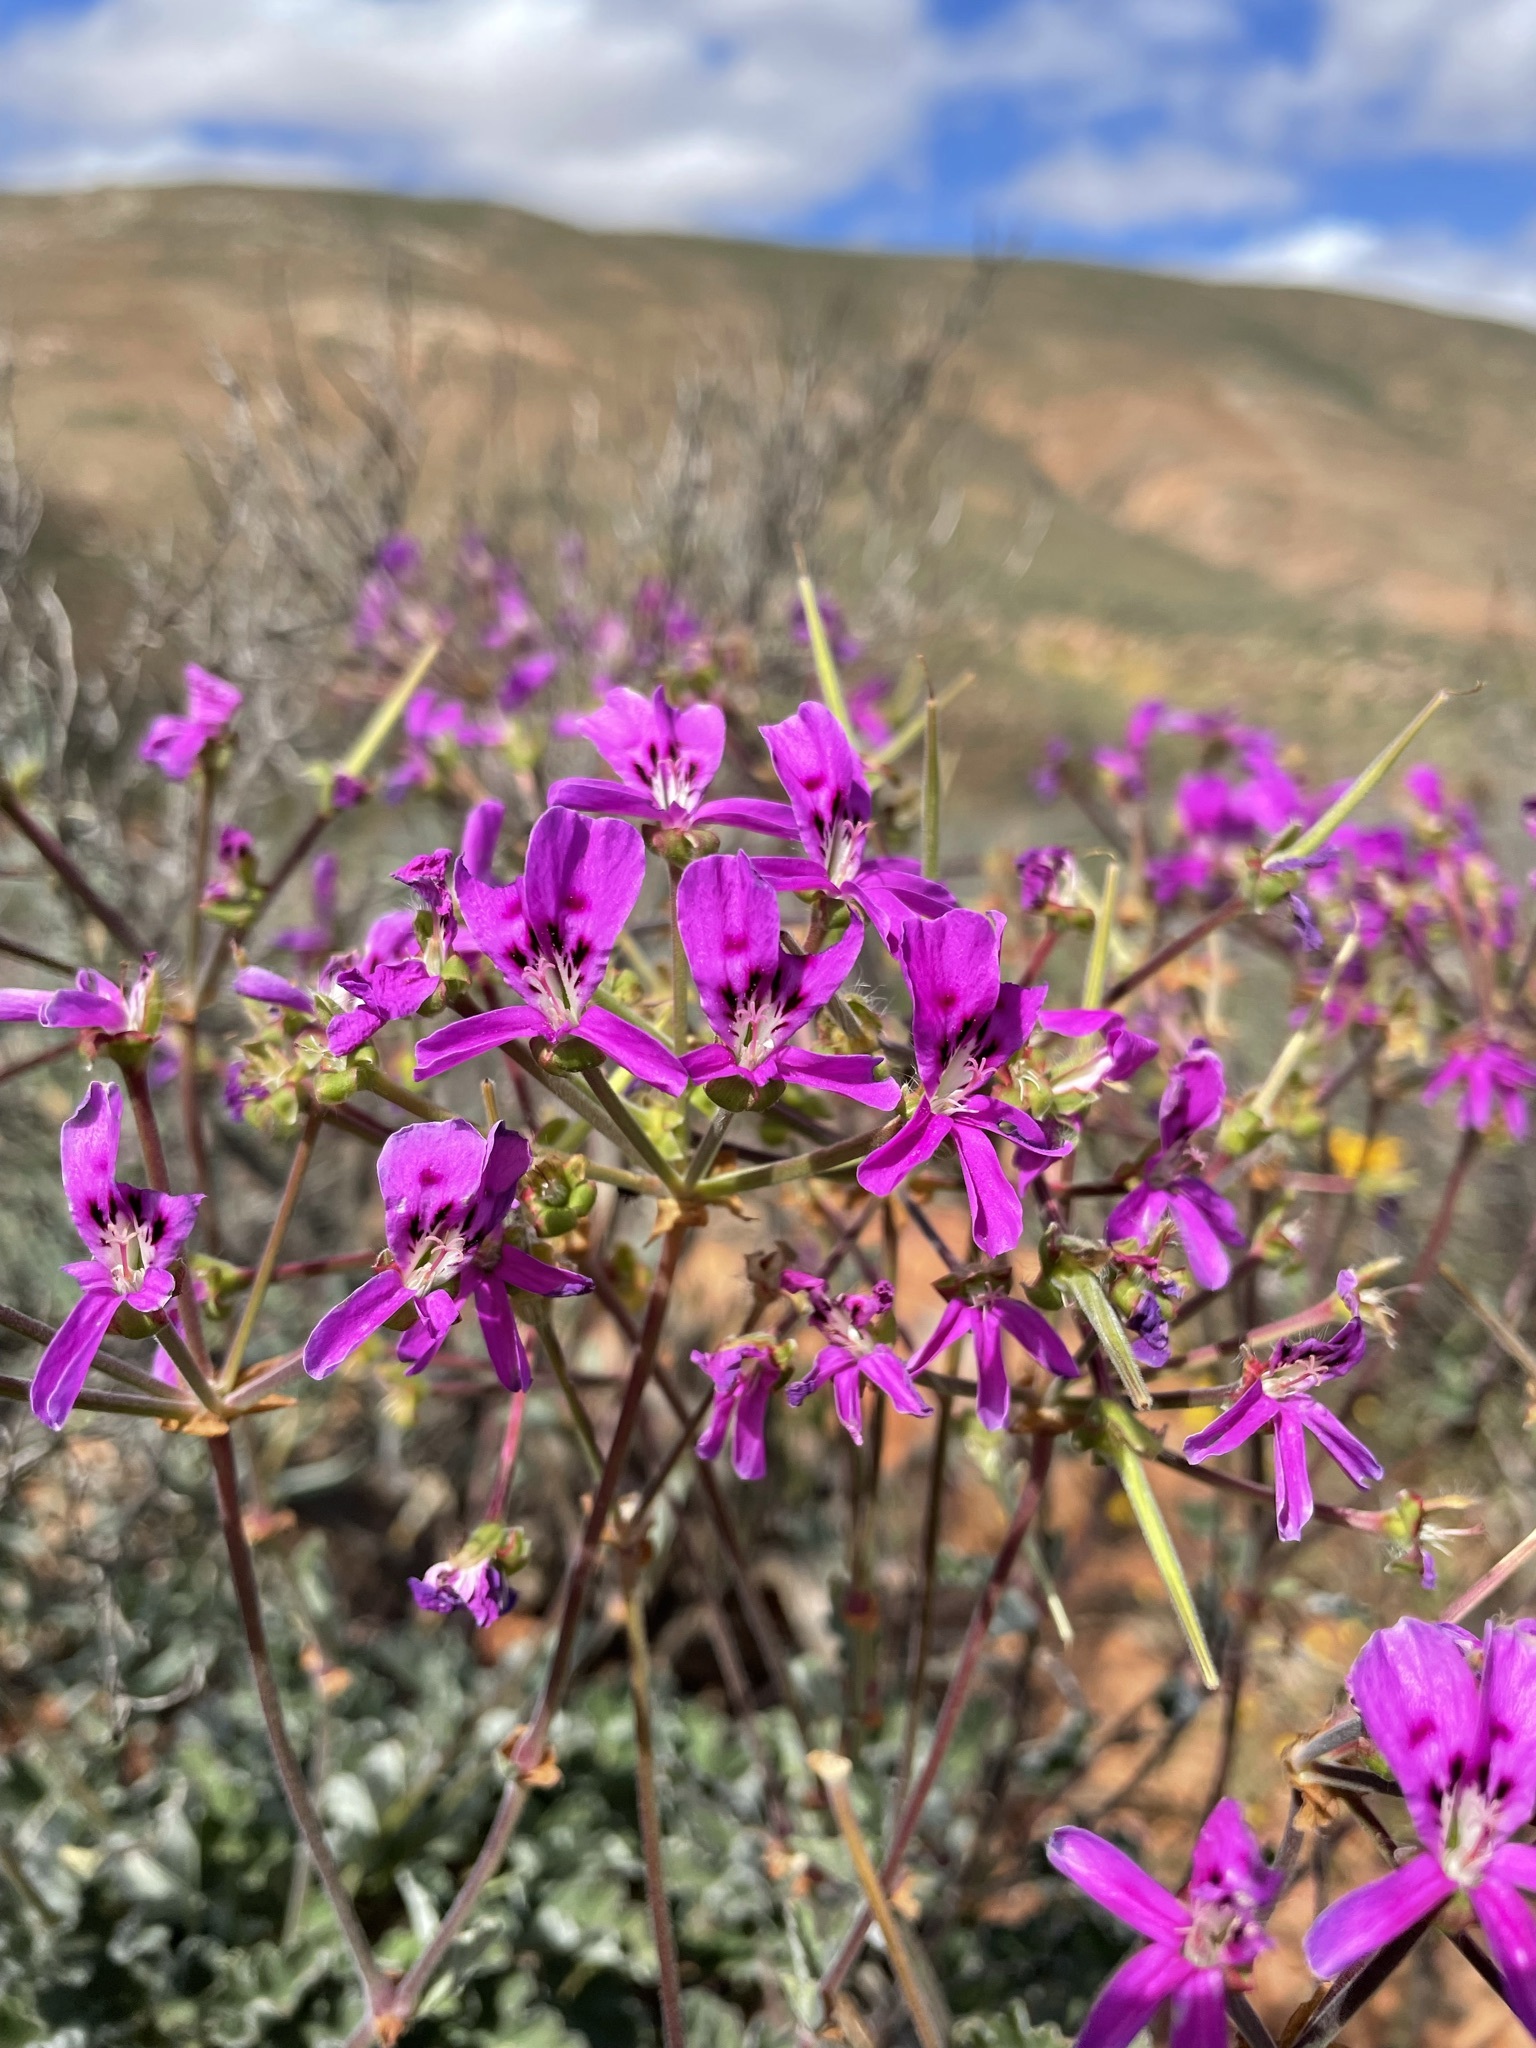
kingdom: Plantae
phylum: Tracheophyta
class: Magnoliopsida
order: Geraniales
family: Geraniaceae
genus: Pelargonium
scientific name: Pelargonium echinatum
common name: Cactus geranium
